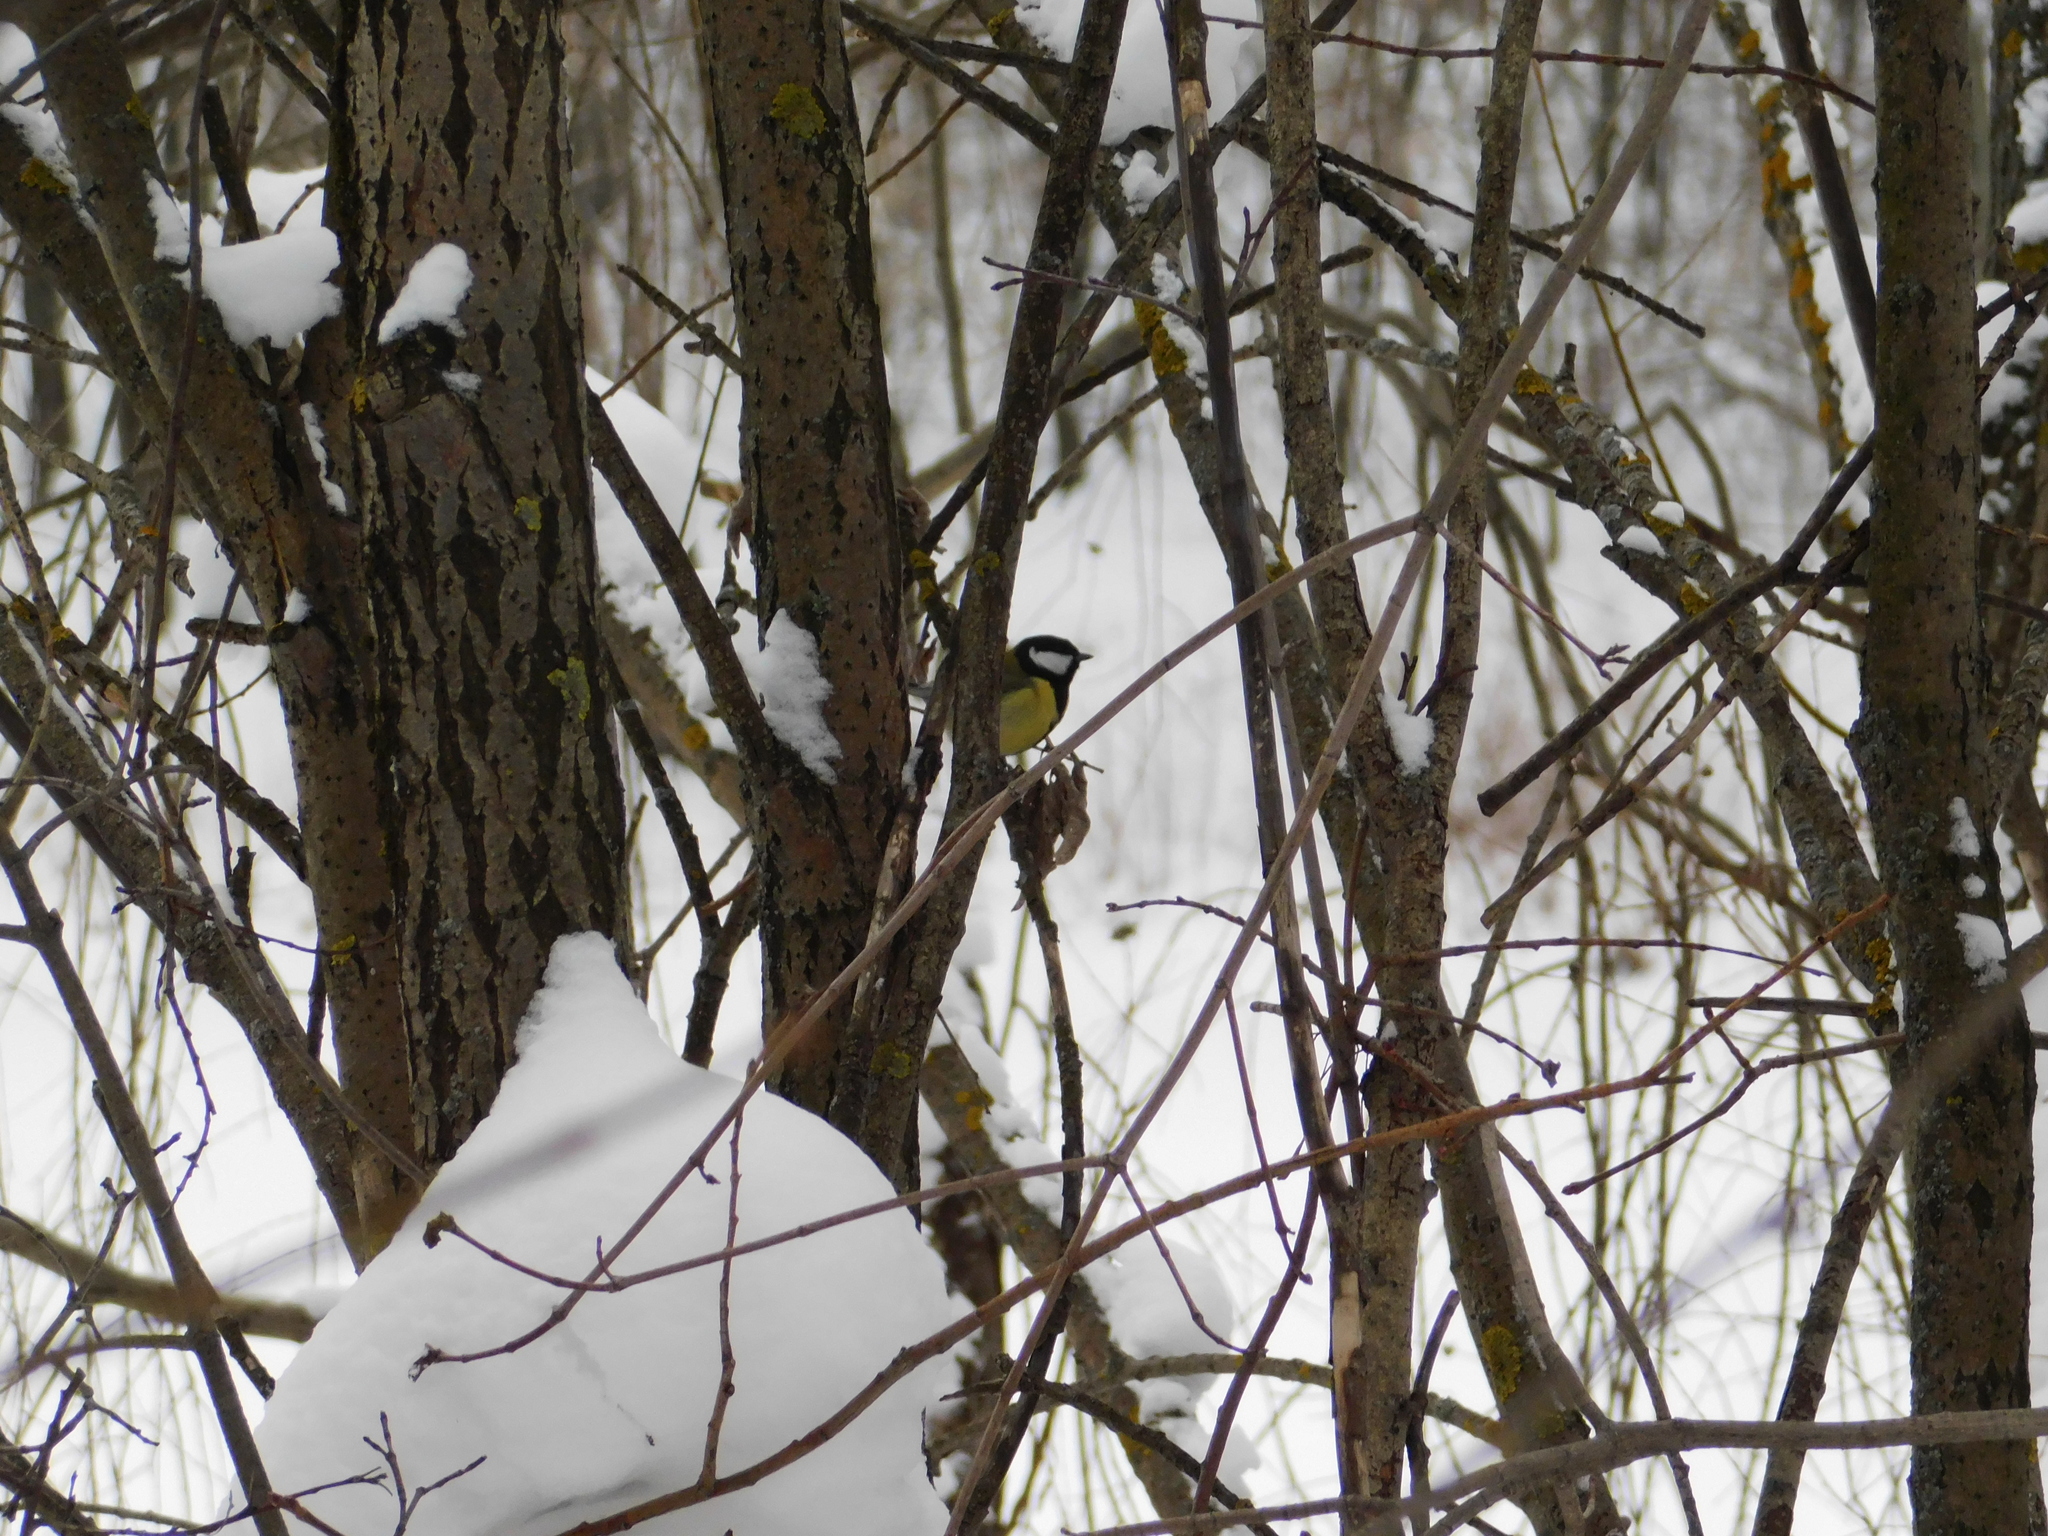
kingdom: Animalia
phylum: Chordata
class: Aves
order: Passeriformes
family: Paridae
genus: Parus
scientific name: Parus major
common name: Great tit
